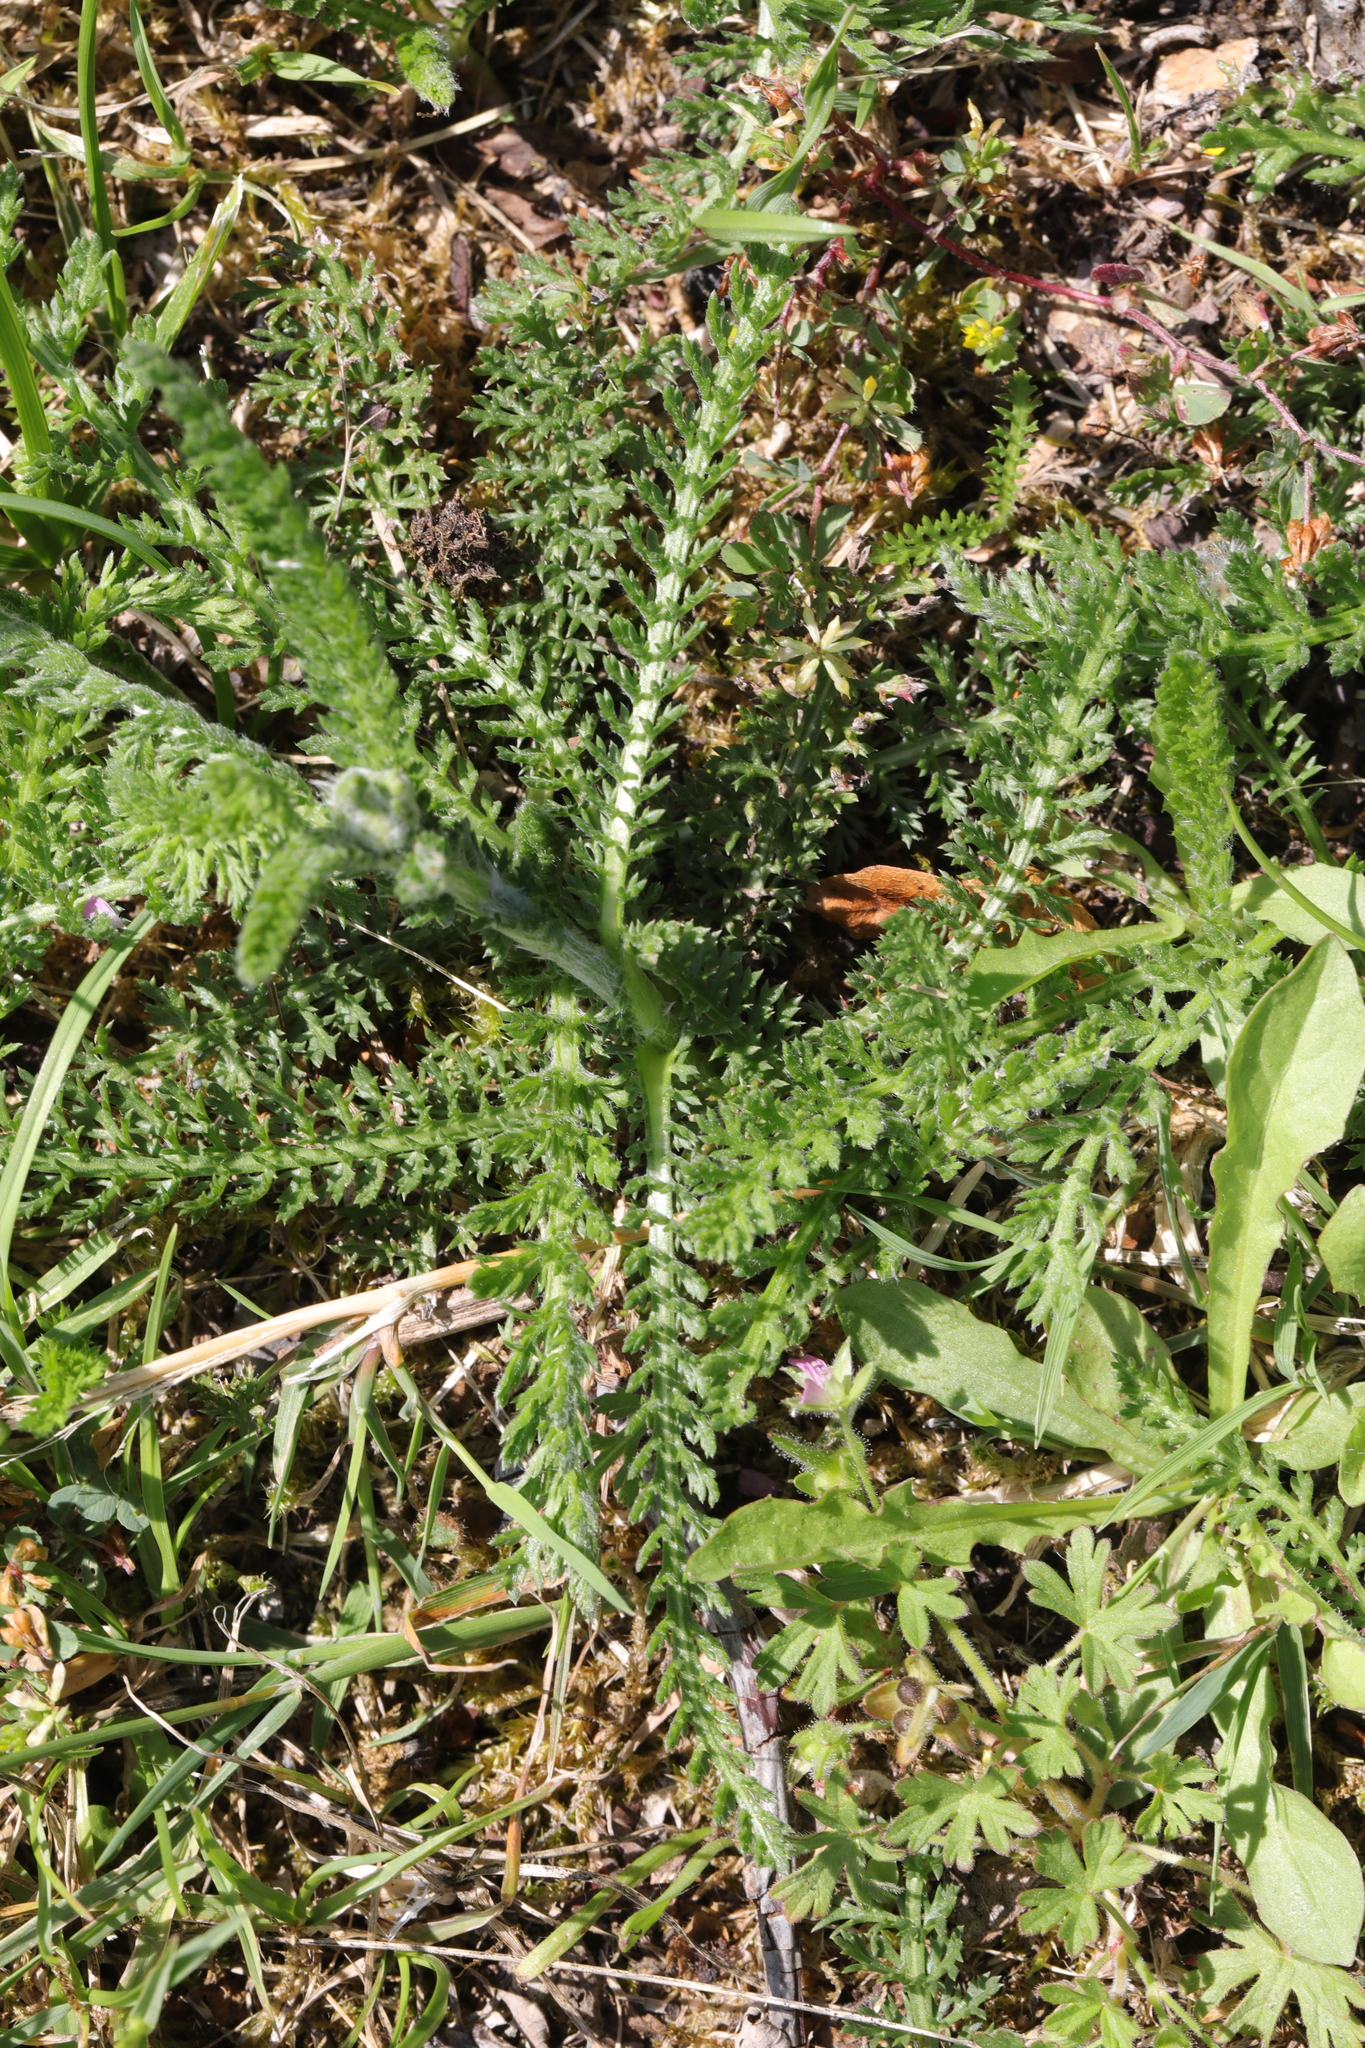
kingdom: Plantae
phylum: Tracheophyta
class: Magnoliopsida
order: Asterales
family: Asteraceae
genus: Achillea
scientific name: Achillea millefolium
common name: Yarrow
